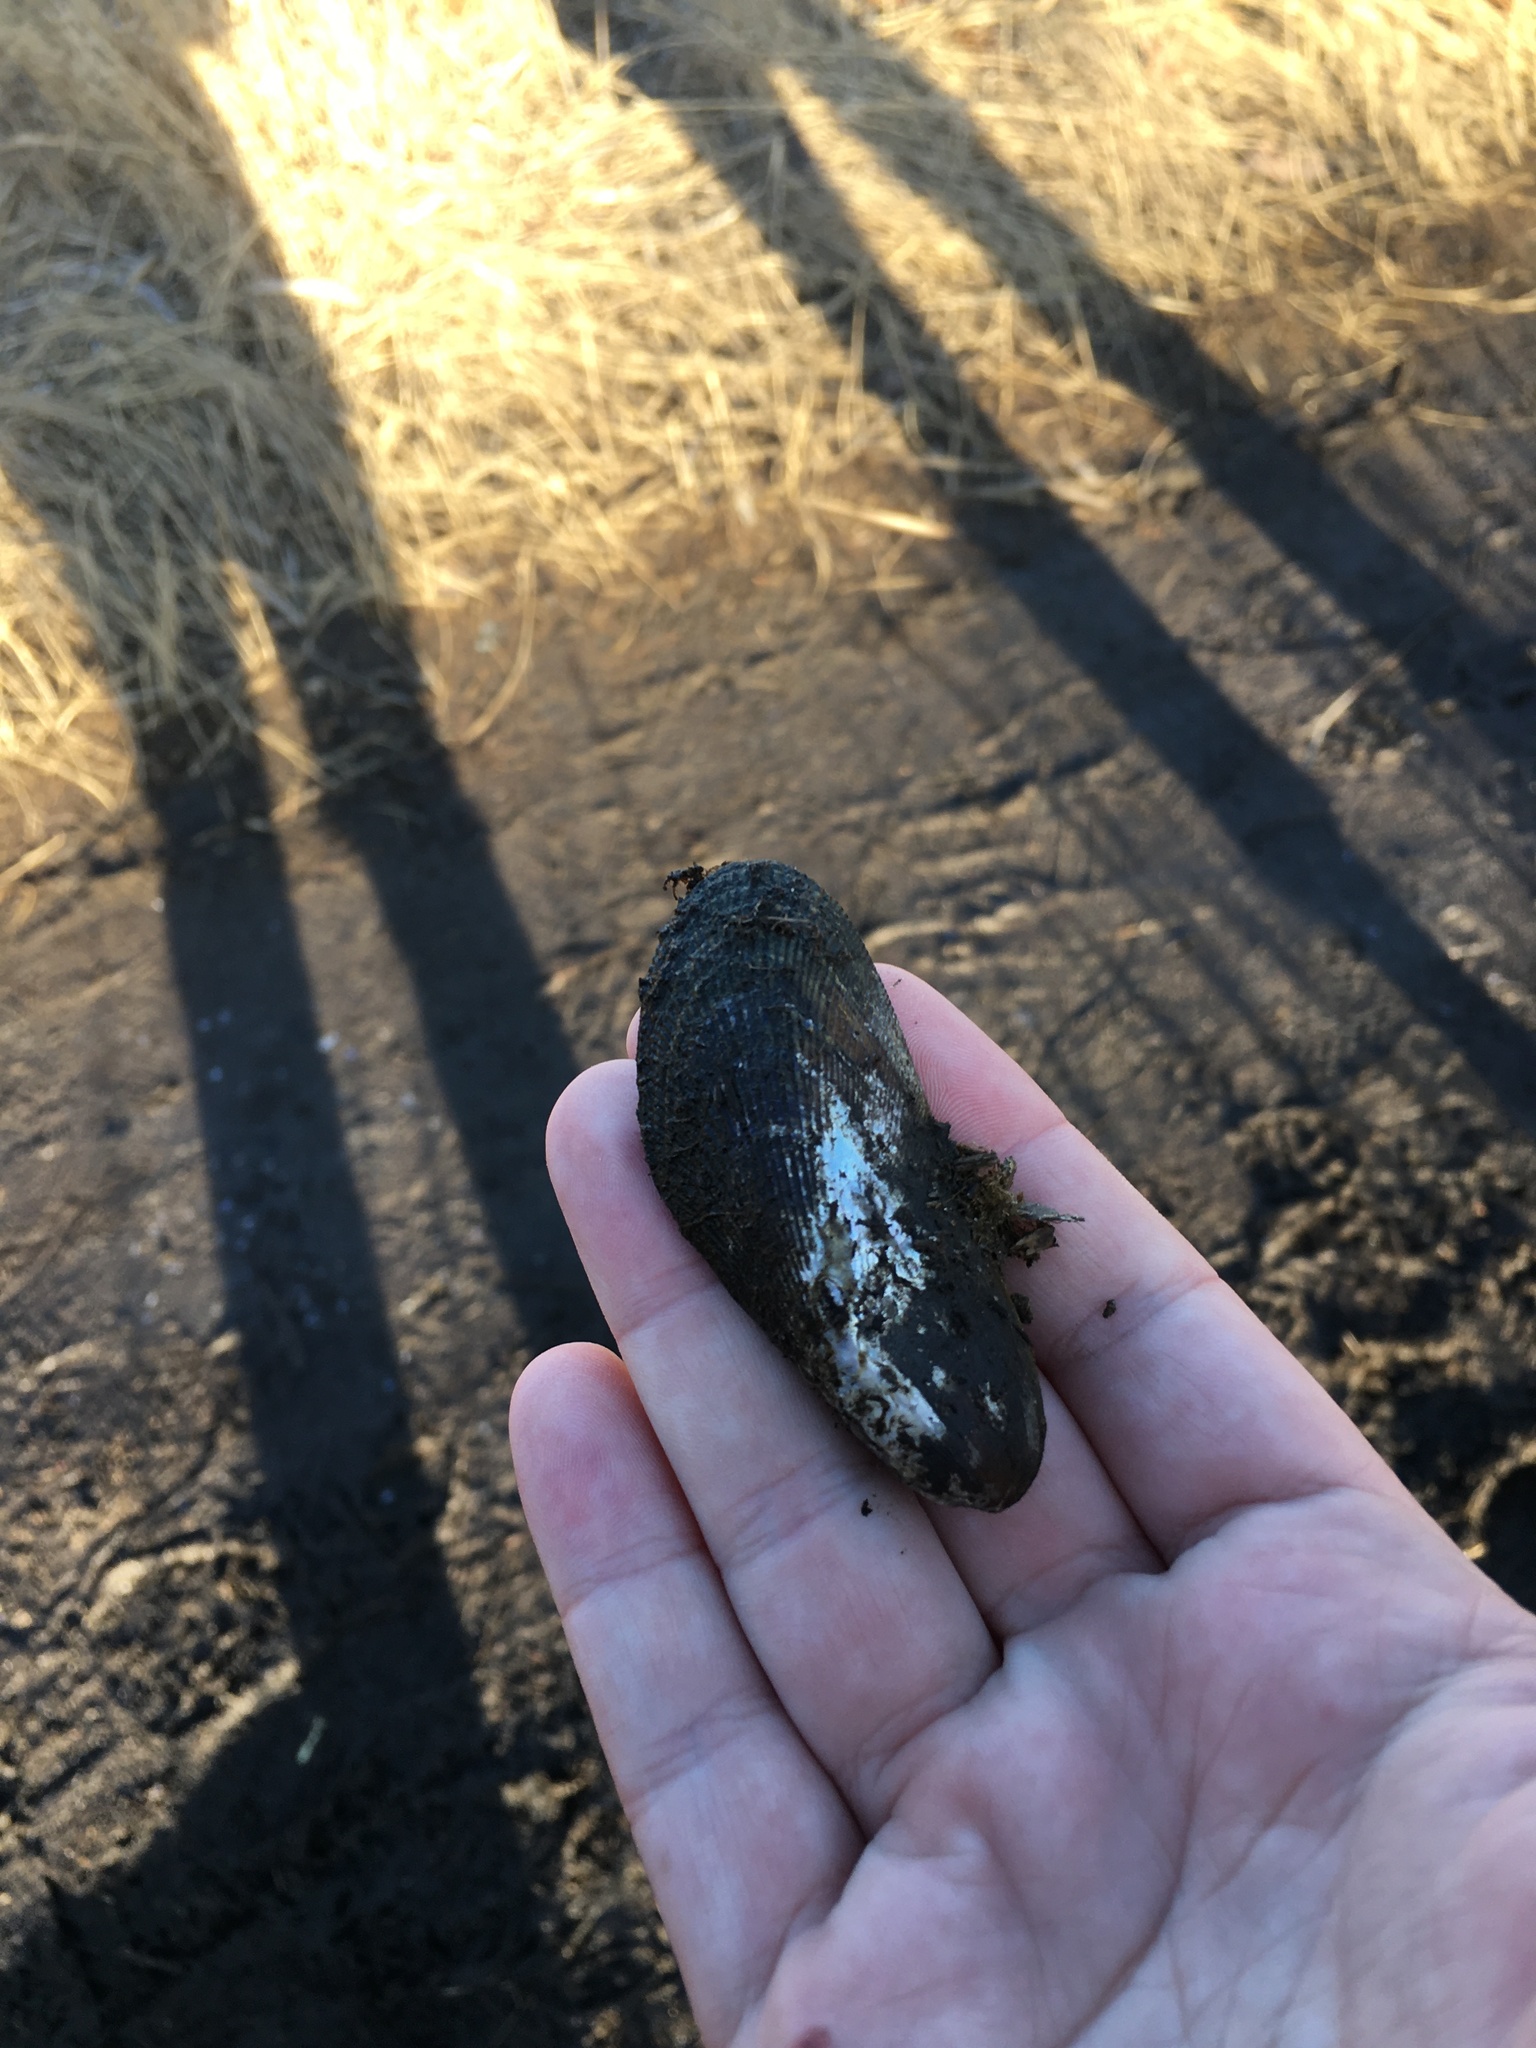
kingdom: Animalia
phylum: Mollusca
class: Bivalvia
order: Mytilida
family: Mytilidae
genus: Geukensia
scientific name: Geukensia demissa
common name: Ribbed mussel
